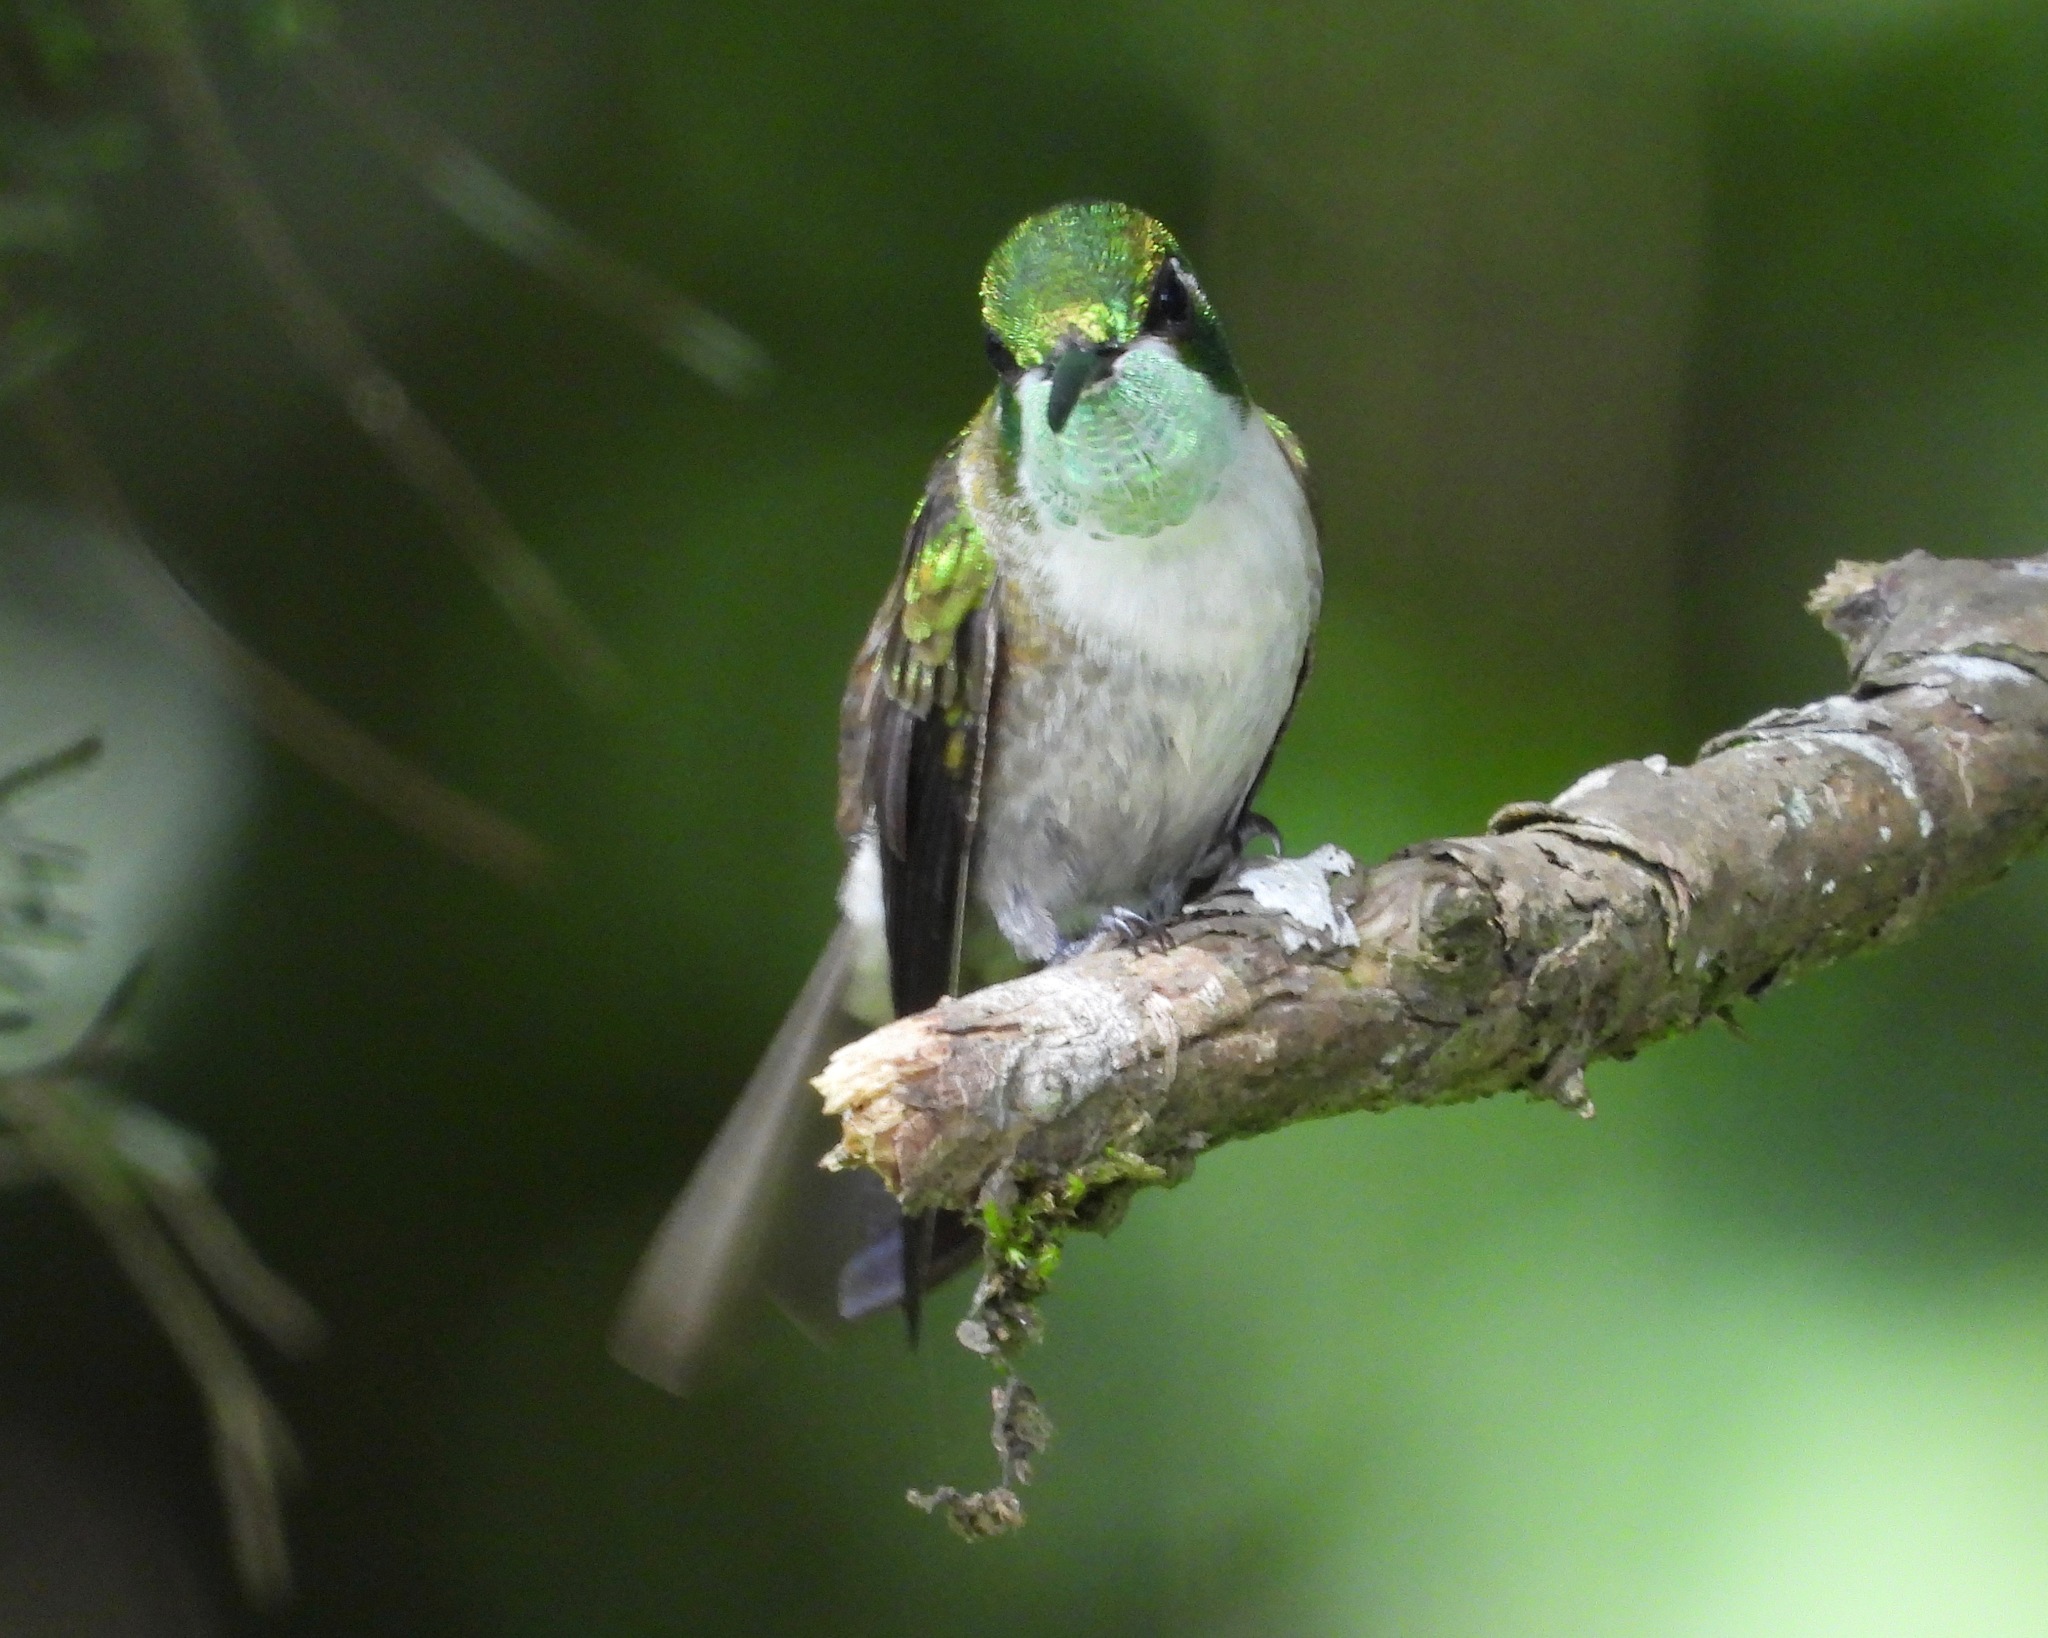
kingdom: Animalia
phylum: Chordata
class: Aves
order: Apodiformes
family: Trochilidae
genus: Lampornis
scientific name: Lampornis viridipallens
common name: Green-throated mountain-gem
